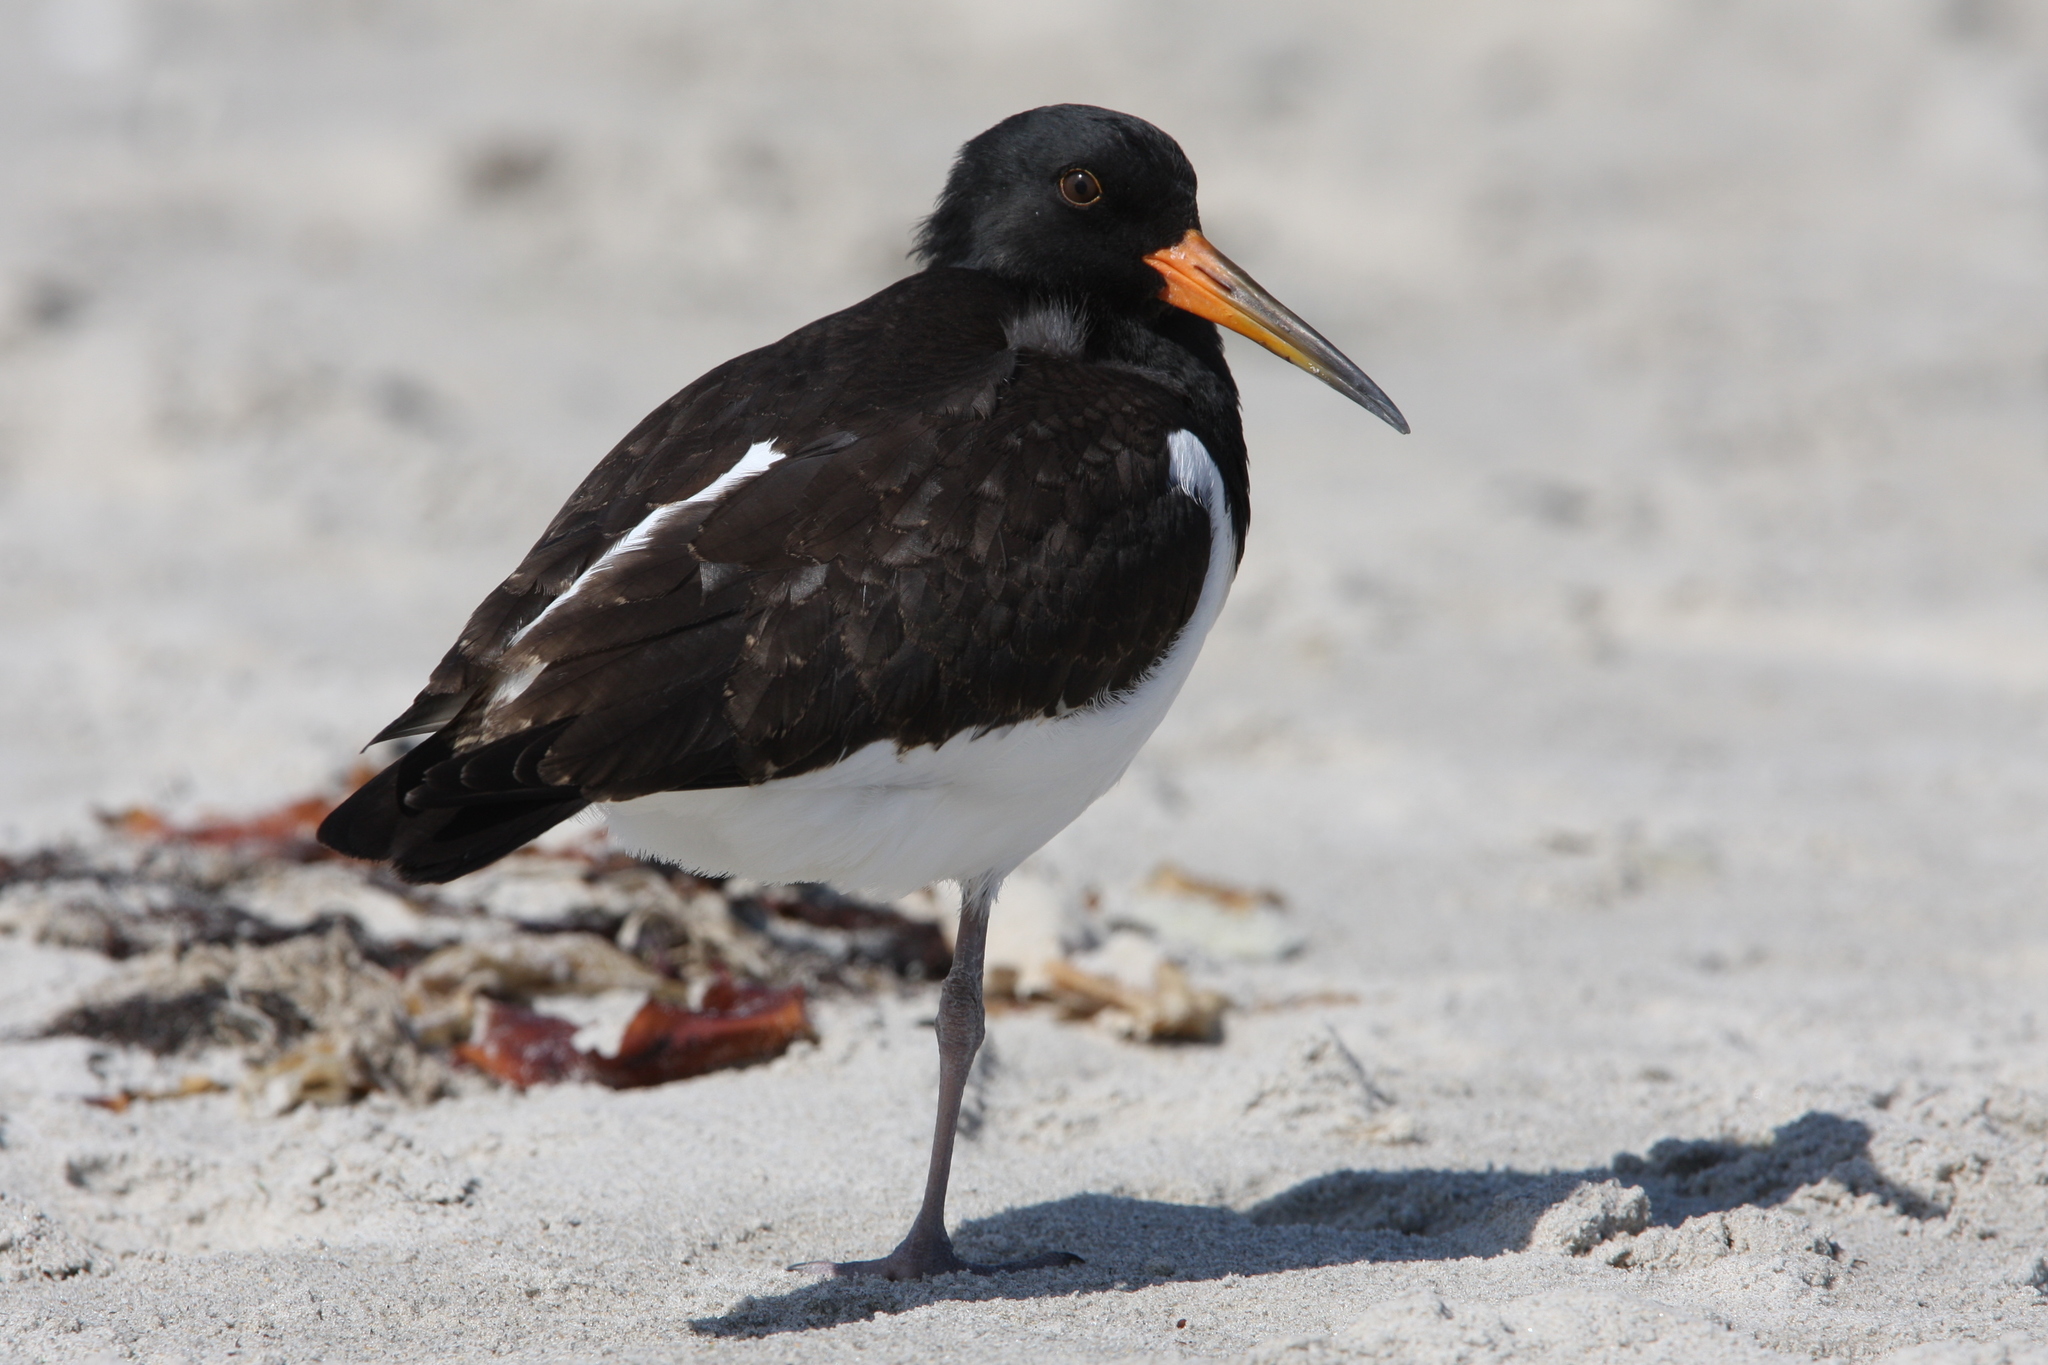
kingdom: Animalia
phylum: Chordata
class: Aves
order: Charadriiformes
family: Haematopodidae
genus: Haematopus
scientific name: Haematopus ostralegus
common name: Eurasian oystercatcher
